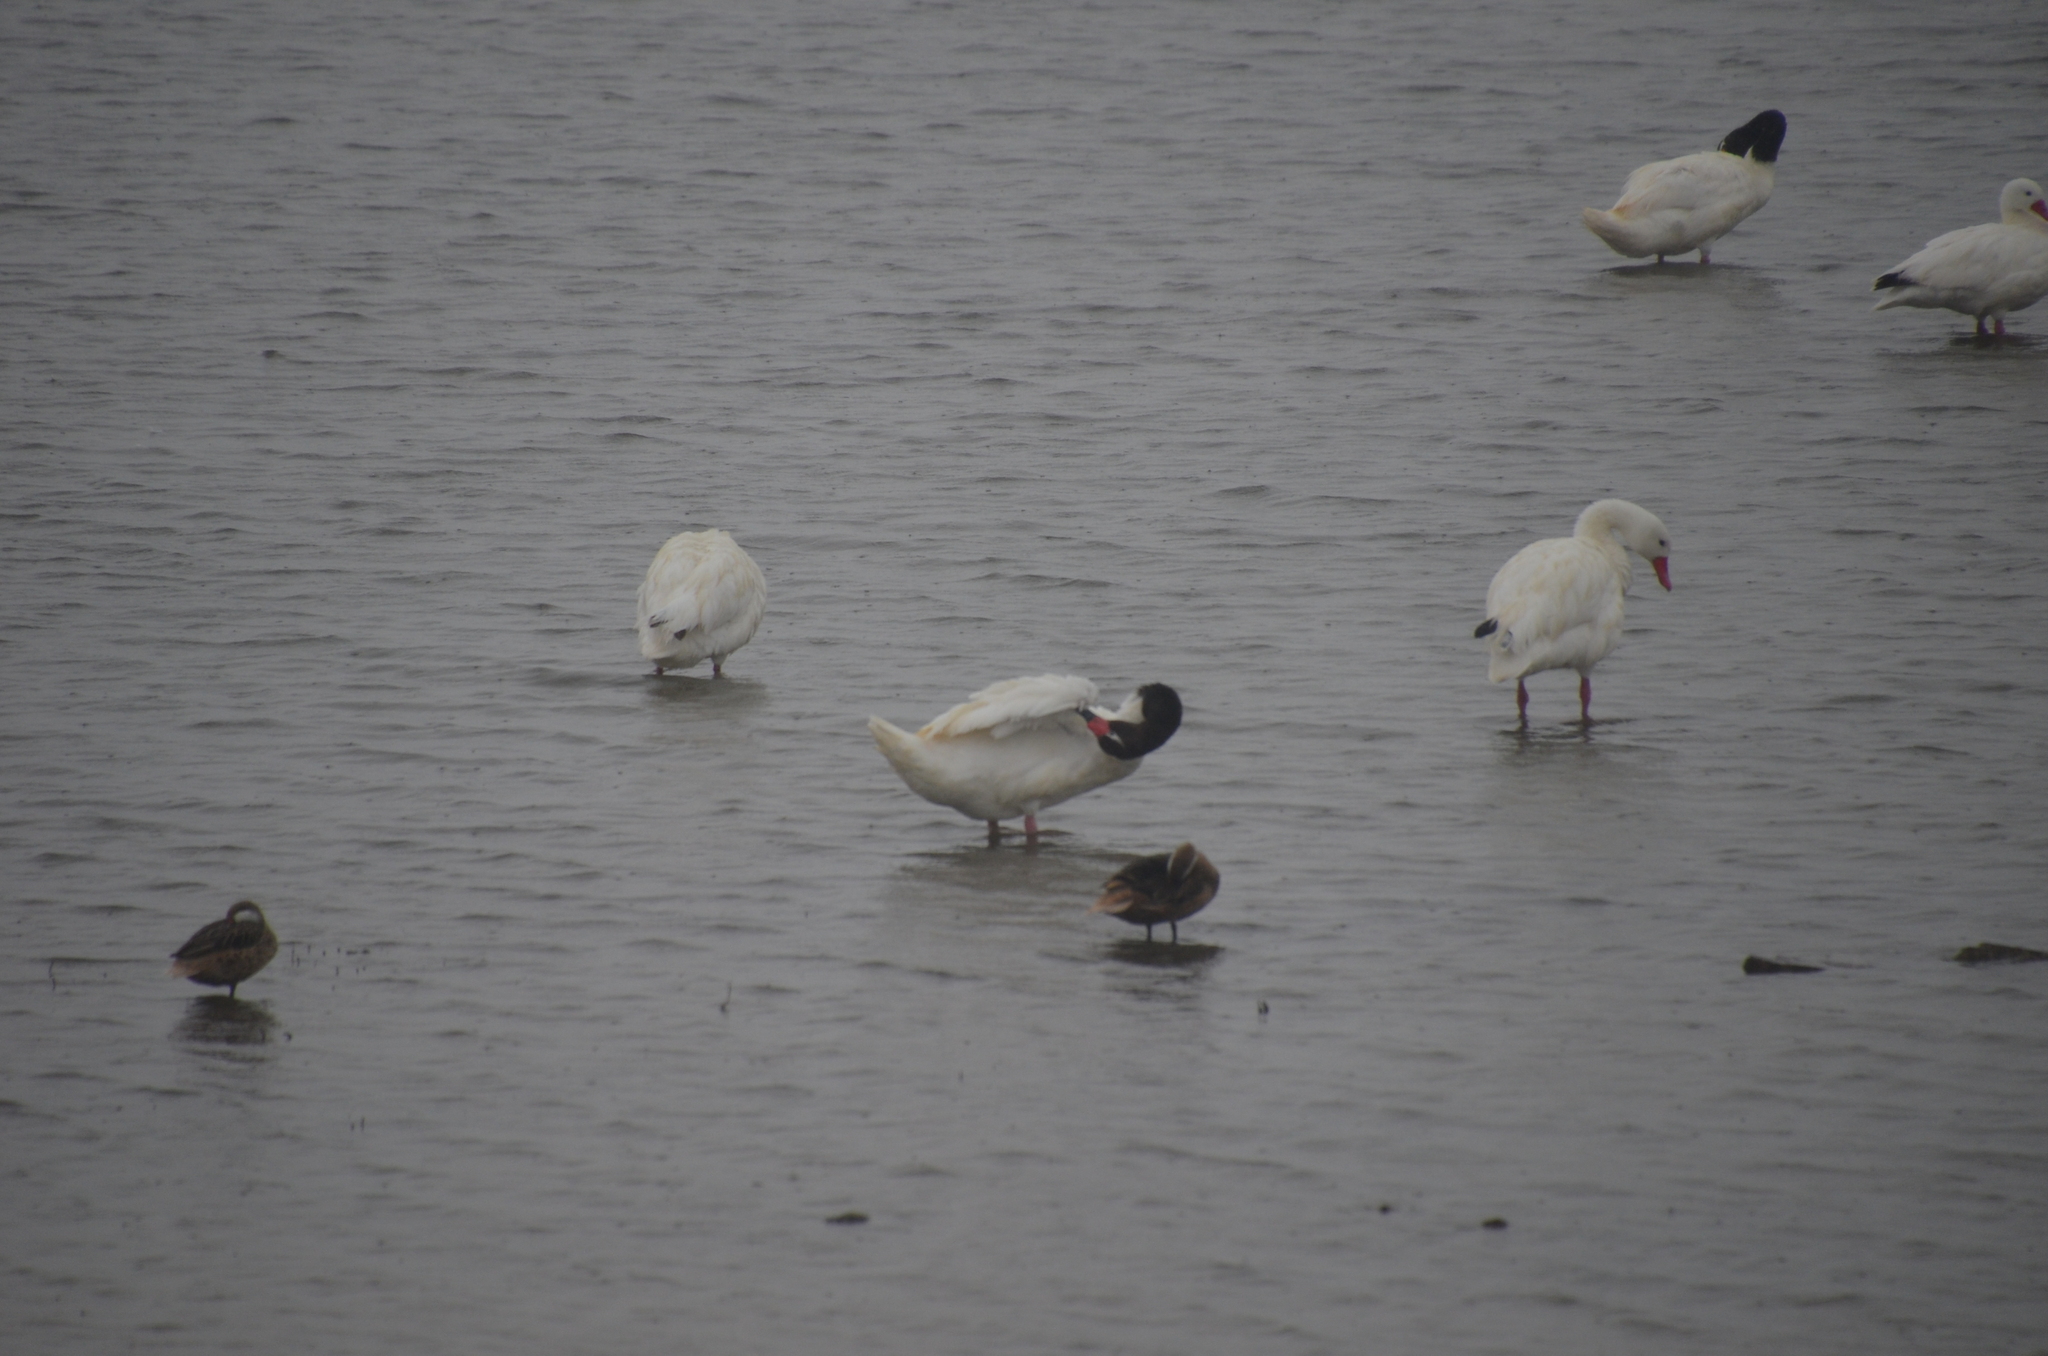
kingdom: Animalia
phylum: Chordata
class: Aves
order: Anseriformes
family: Anatidae
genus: Cygnus
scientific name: Cygnus melancoryphus
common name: Black-necked swan
